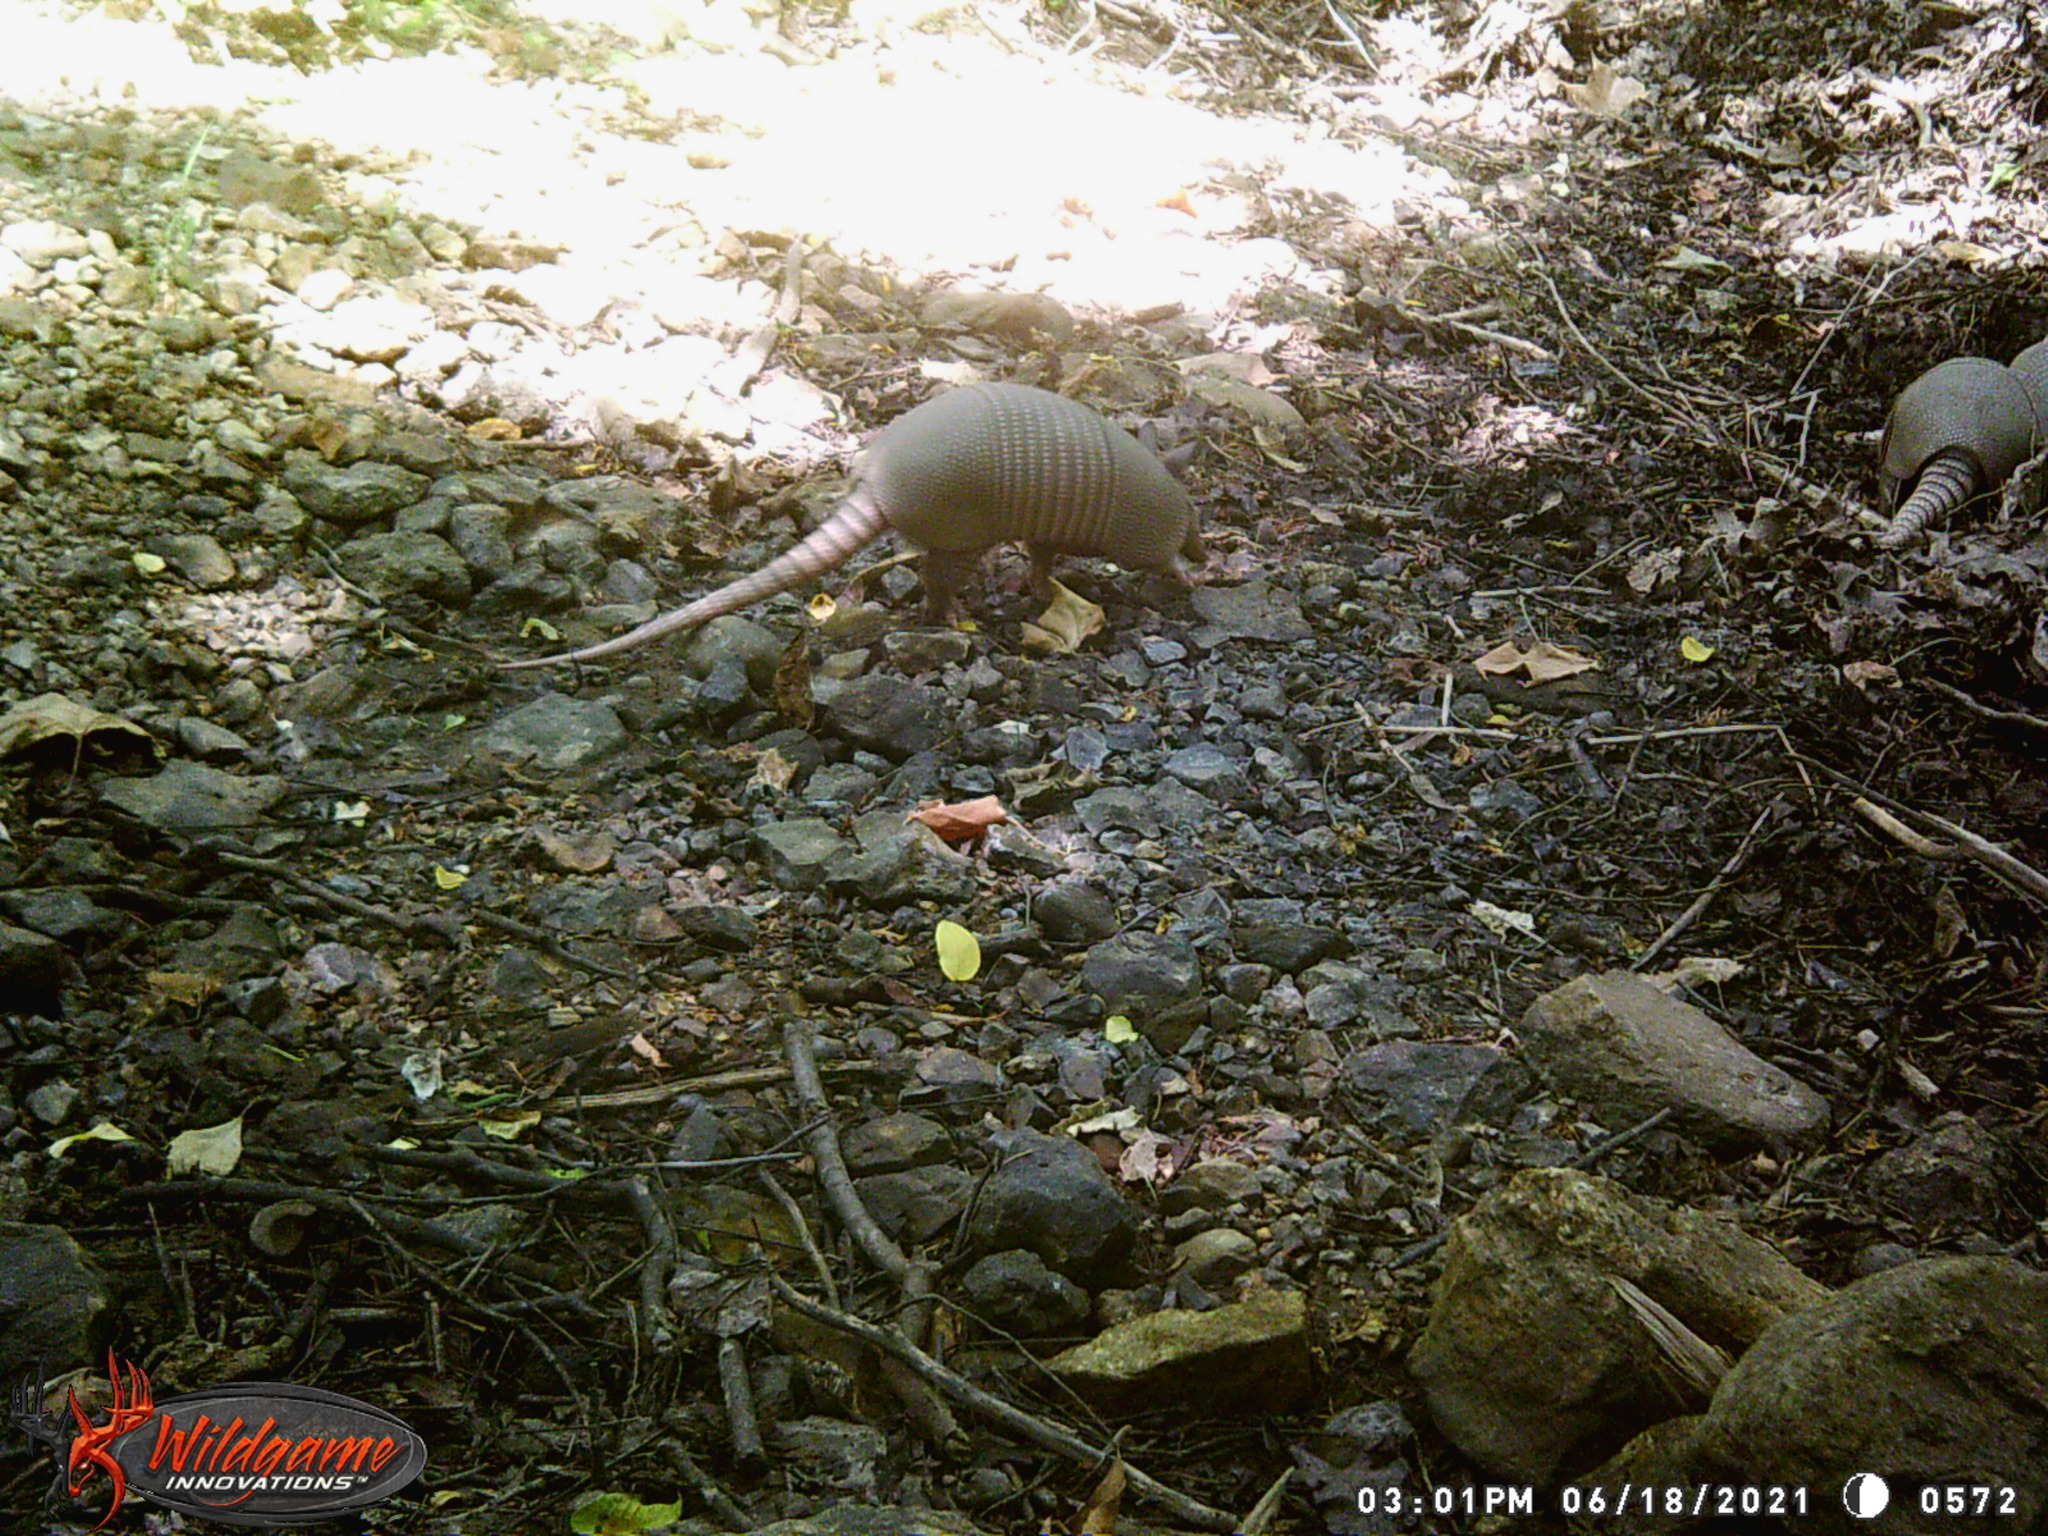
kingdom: Animalia
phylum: Chordata
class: Mammalia
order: Cingulata
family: Dasypodidae
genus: Dasypus
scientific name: Dasypus novemcinctus
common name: Nine-banded armadillo
